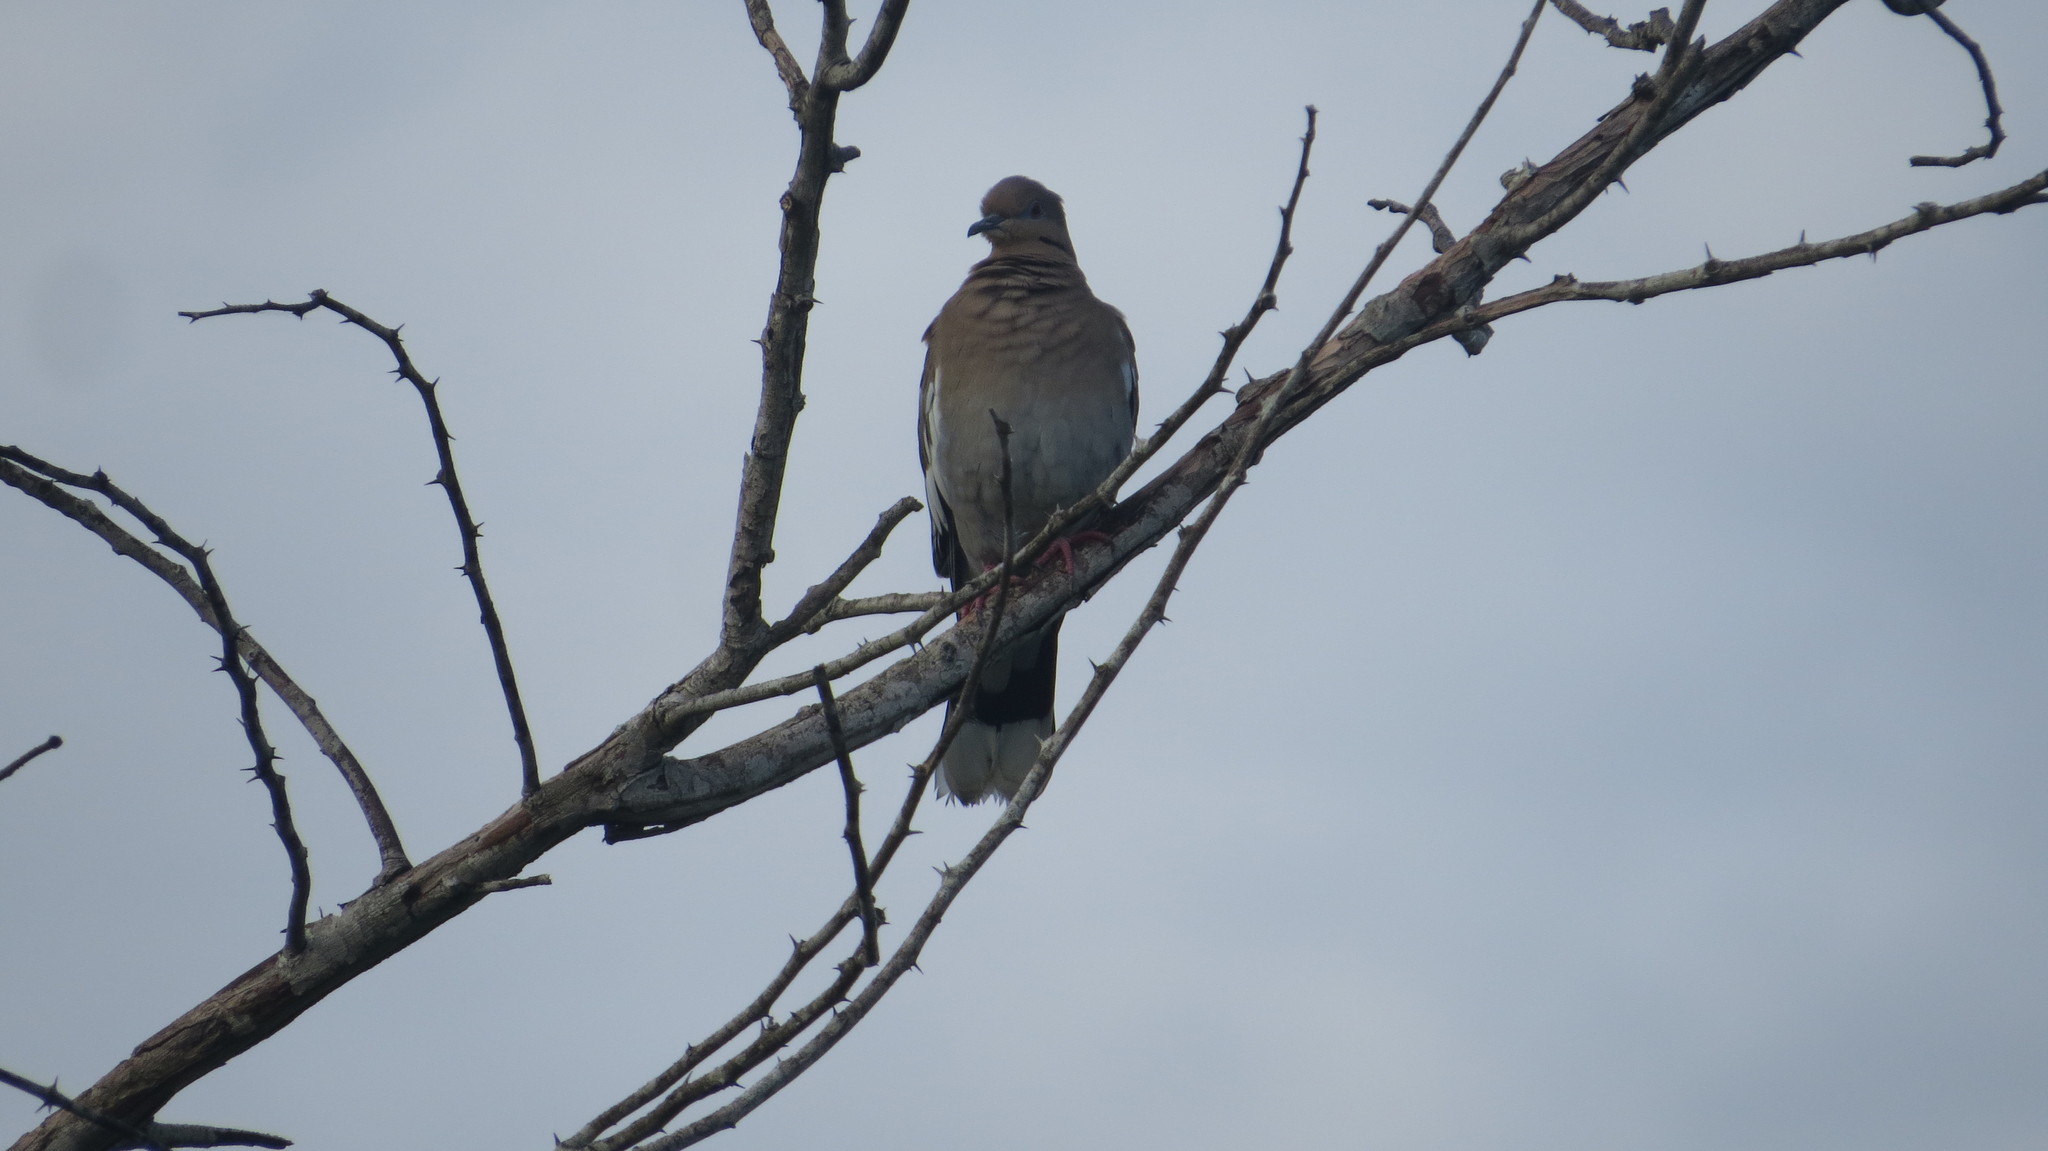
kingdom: Animalia
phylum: Chordata
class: Aves
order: Columbiformes
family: Columbidae
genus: Zenaida
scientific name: Zenaida asiatica
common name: White-winged dove
